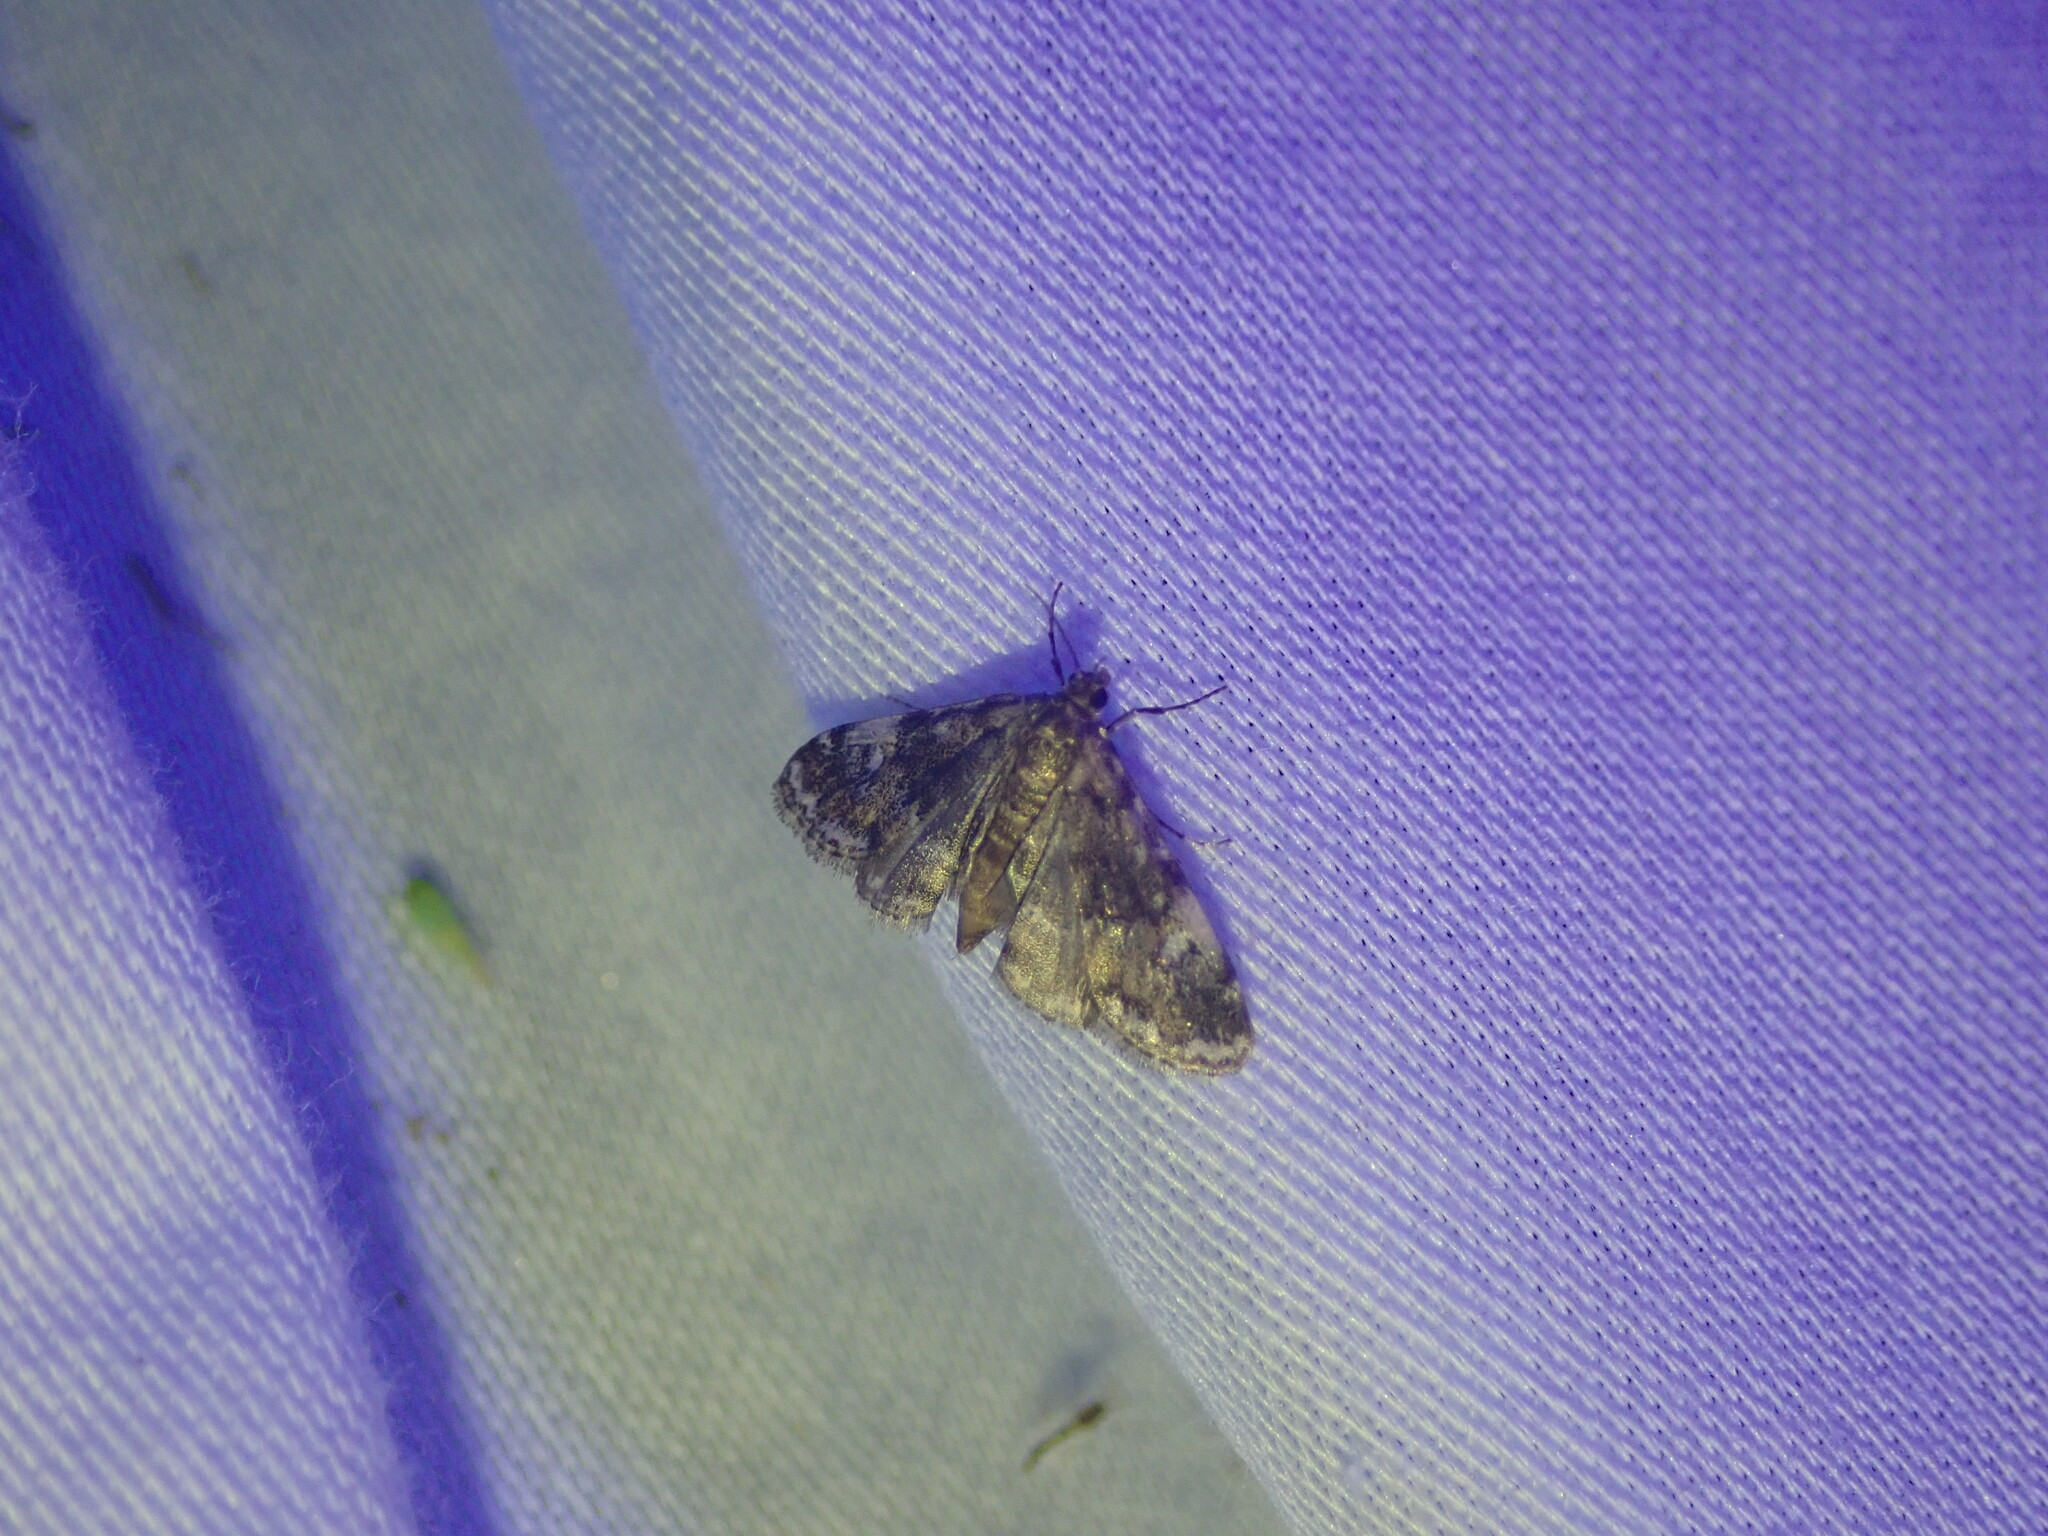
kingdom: Animalia
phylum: Arthropoda
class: Insecta
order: Lepidoptera
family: Crambidae
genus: Elophila
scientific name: Elophila obliteralis
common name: Waterlily leafcutter moth
